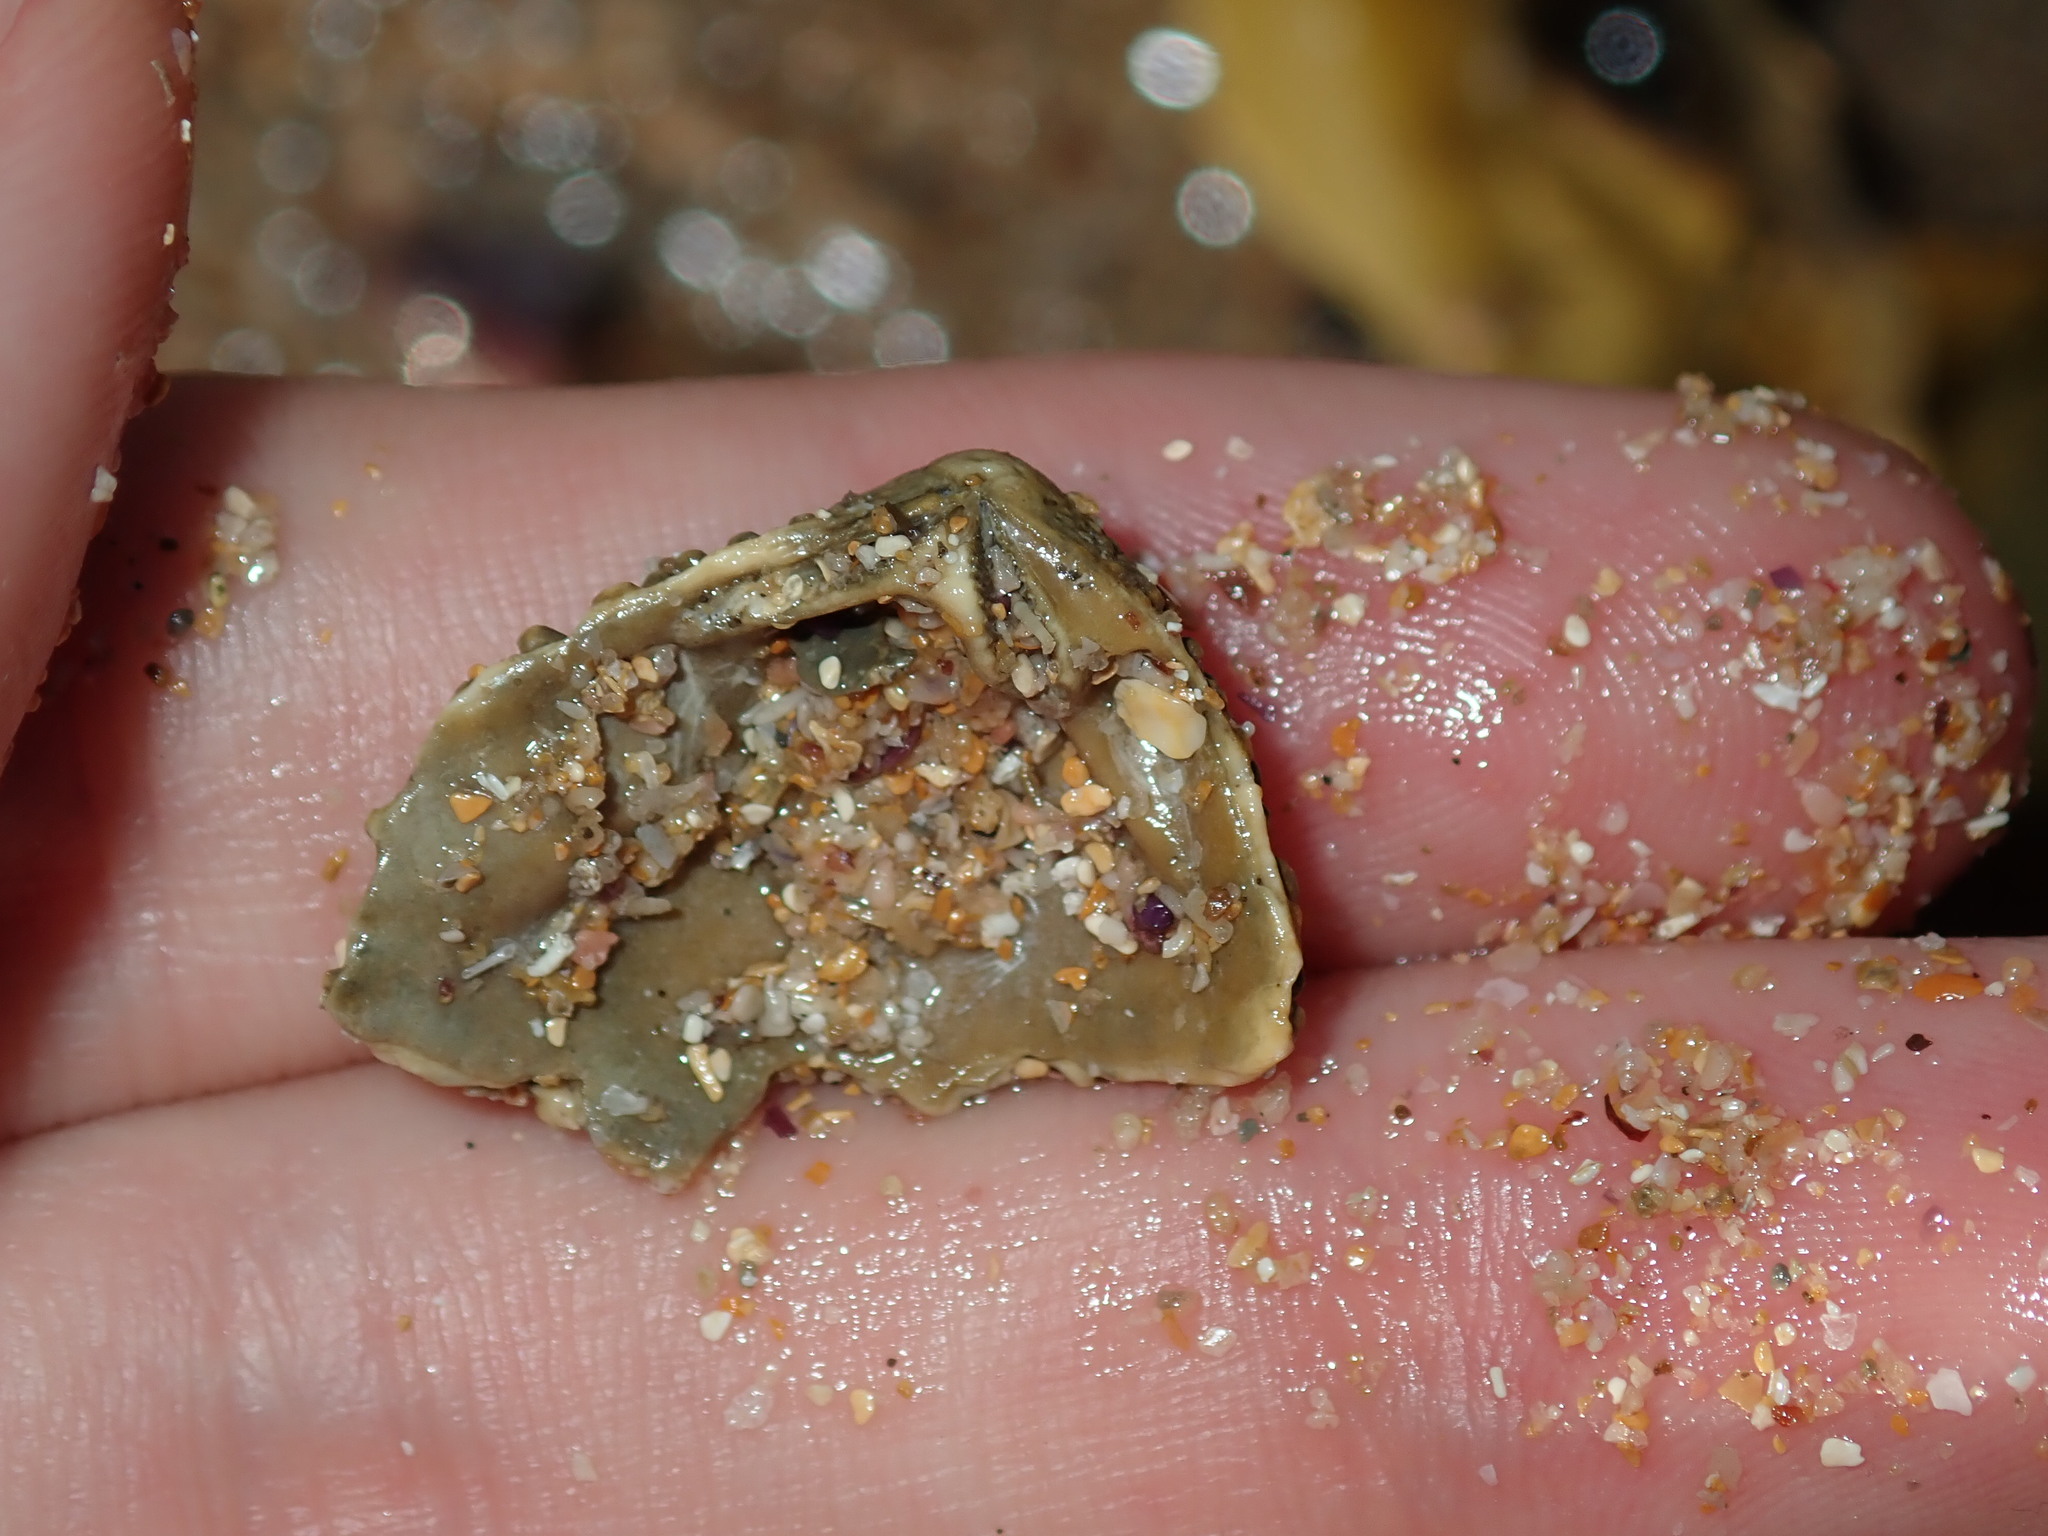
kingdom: Animalia
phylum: Mollusca
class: Bivalvia
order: Trigoniida
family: Trigoniidae
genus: Neotrigonia
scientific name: Neotrigonia lamarckii
